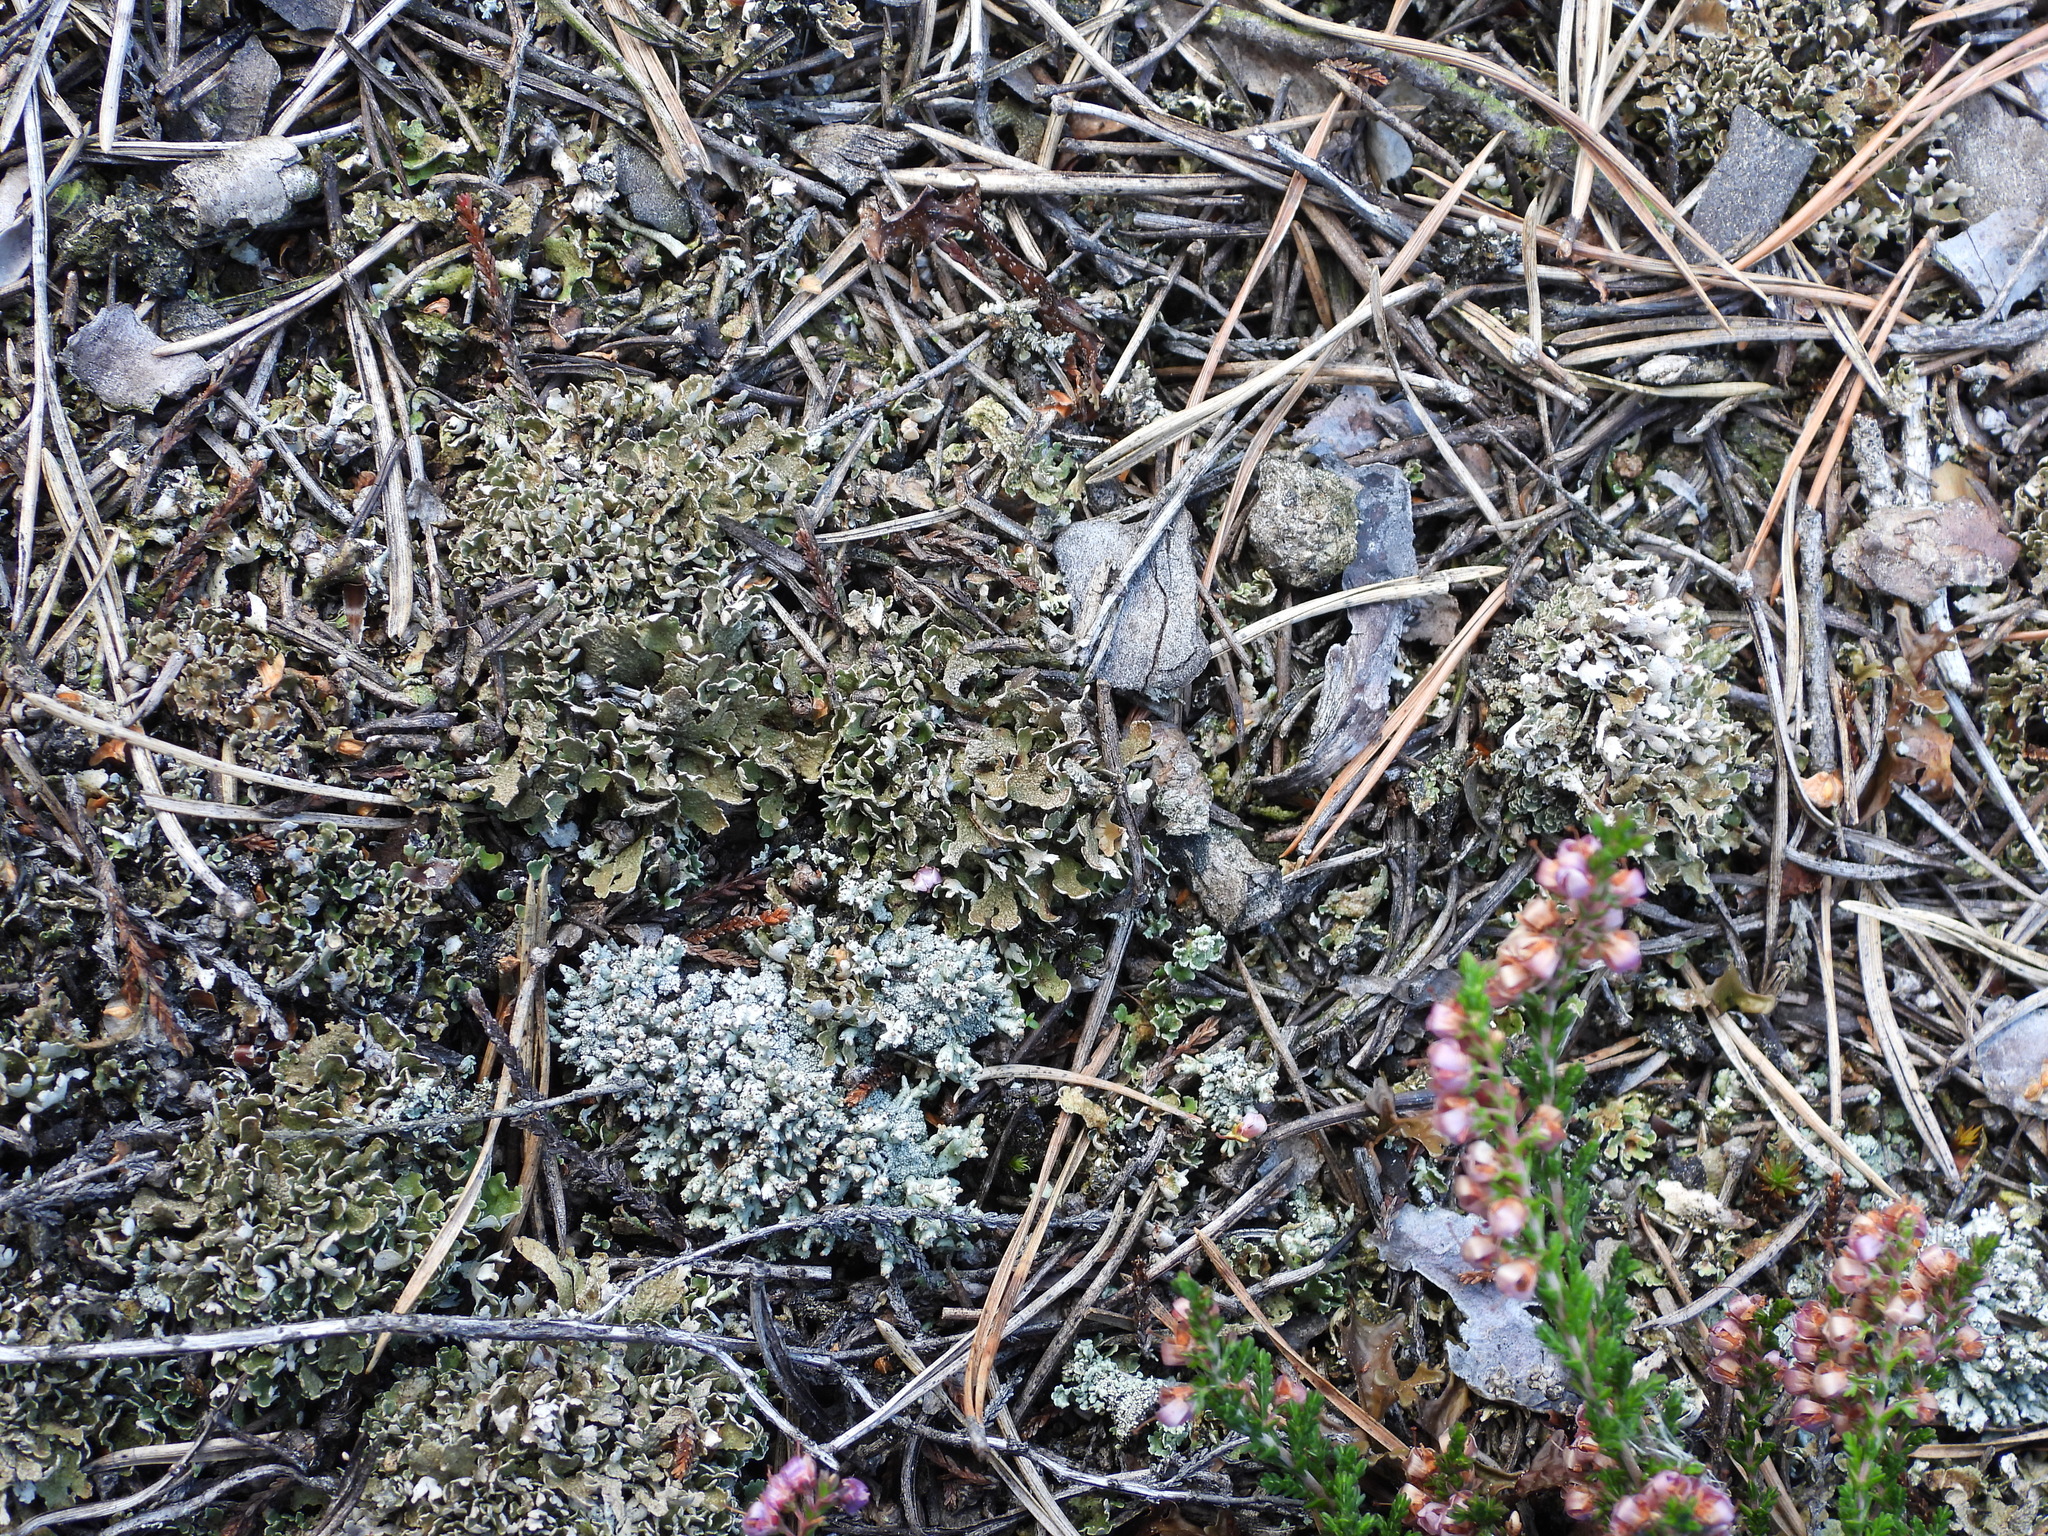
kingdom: Fungi
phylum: Ascomycota
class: Lecanoromycetes
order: Lecanorales
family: Cladoniaceae
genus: Cladonia
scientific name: Cladonia strepsilis
